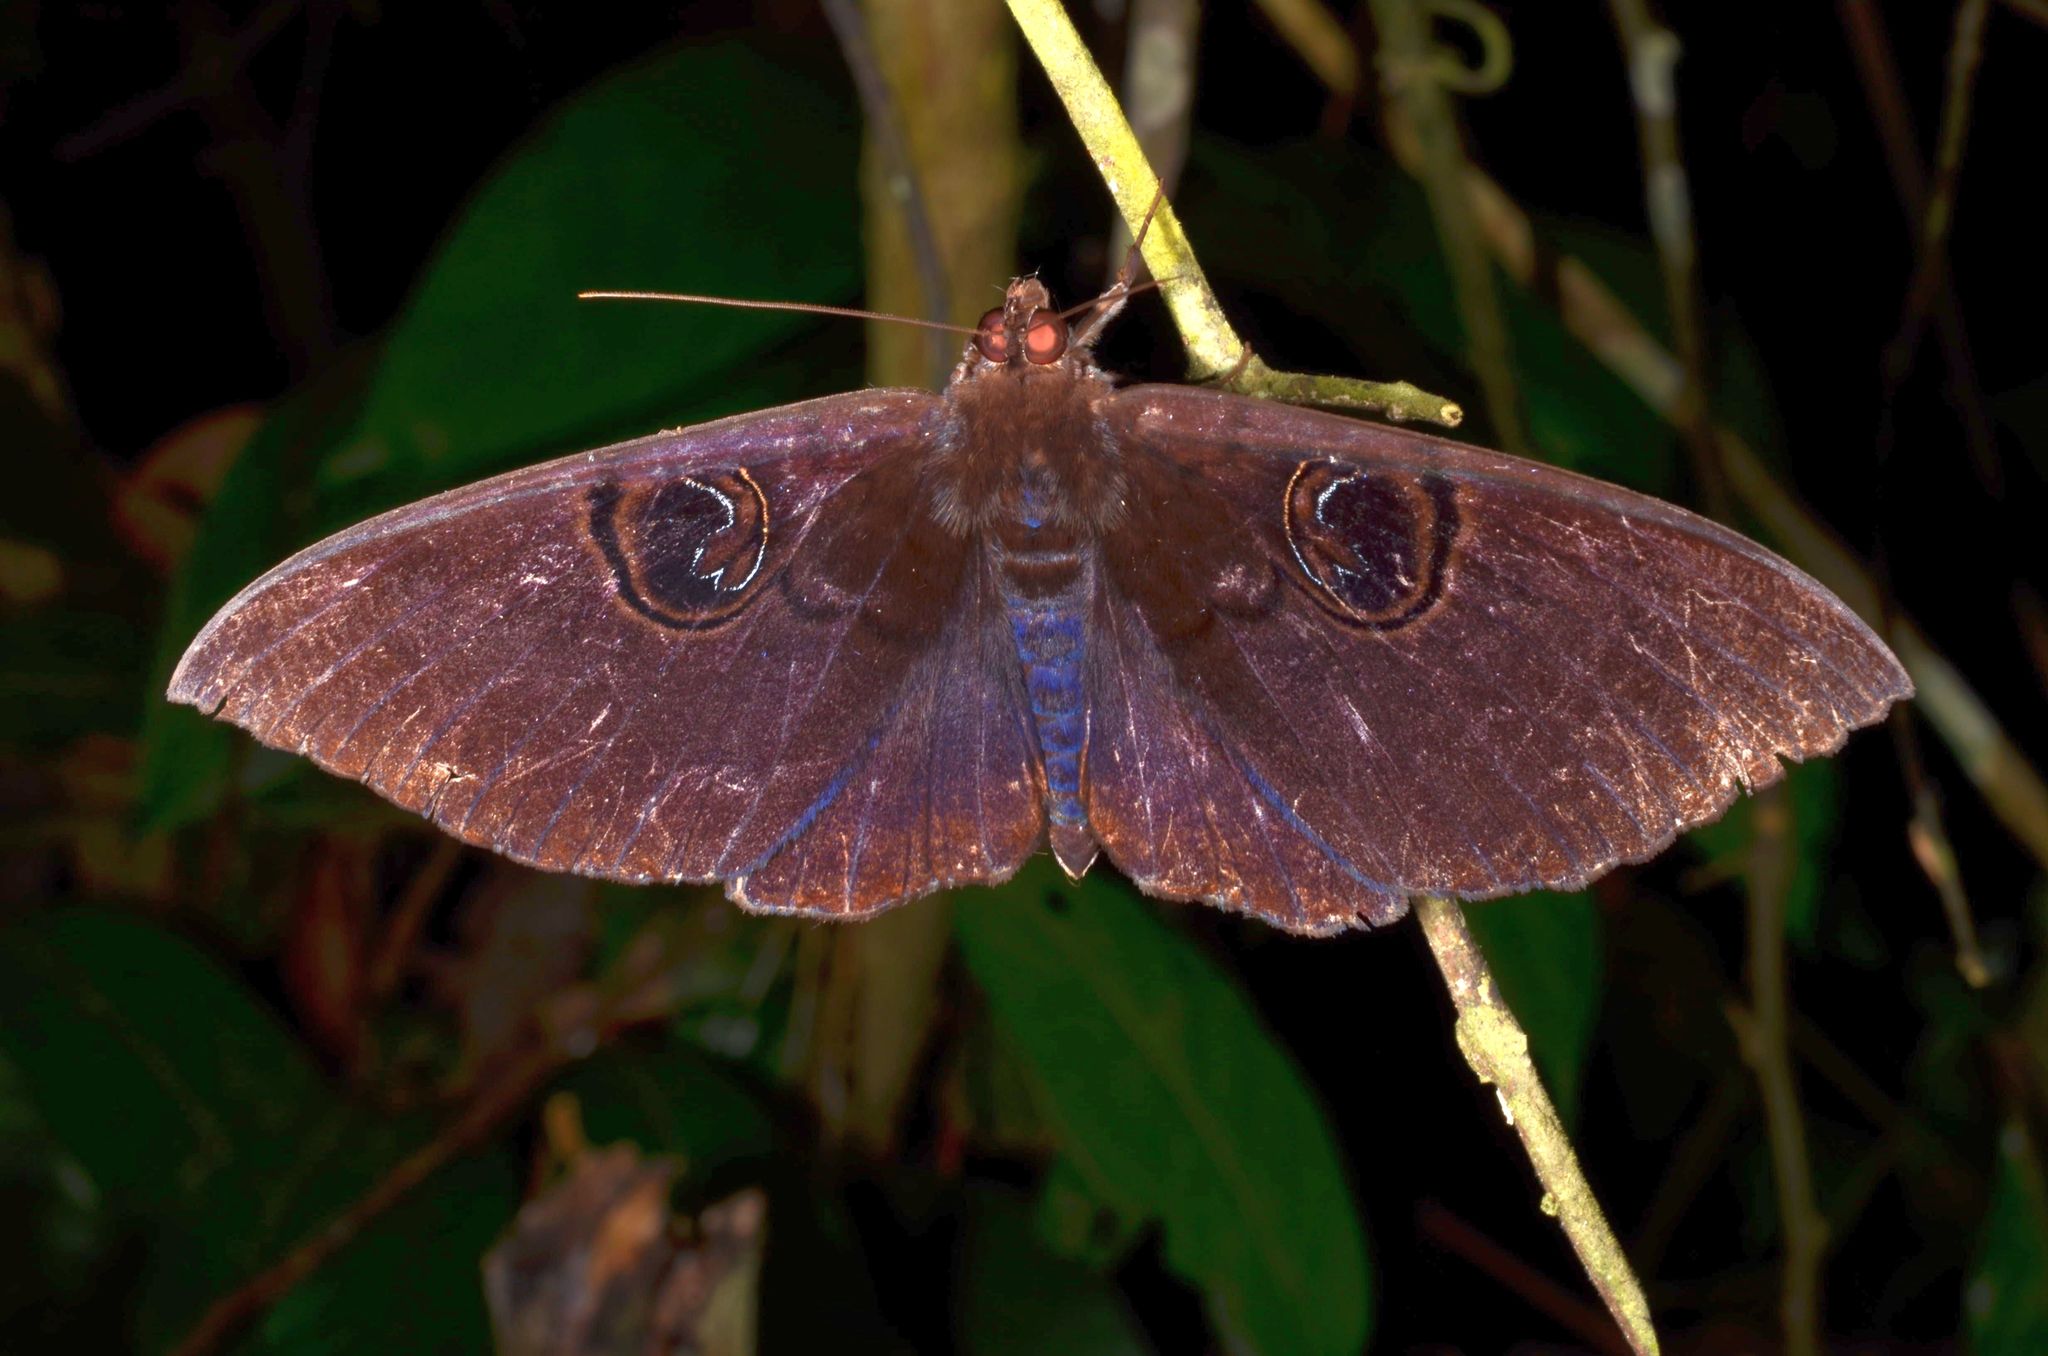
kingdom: Animalia
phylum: Arthropoda
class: Insecta
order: Lepidoptera
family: Erebidae
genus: Erebus
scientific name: Erebus caprimulgus
